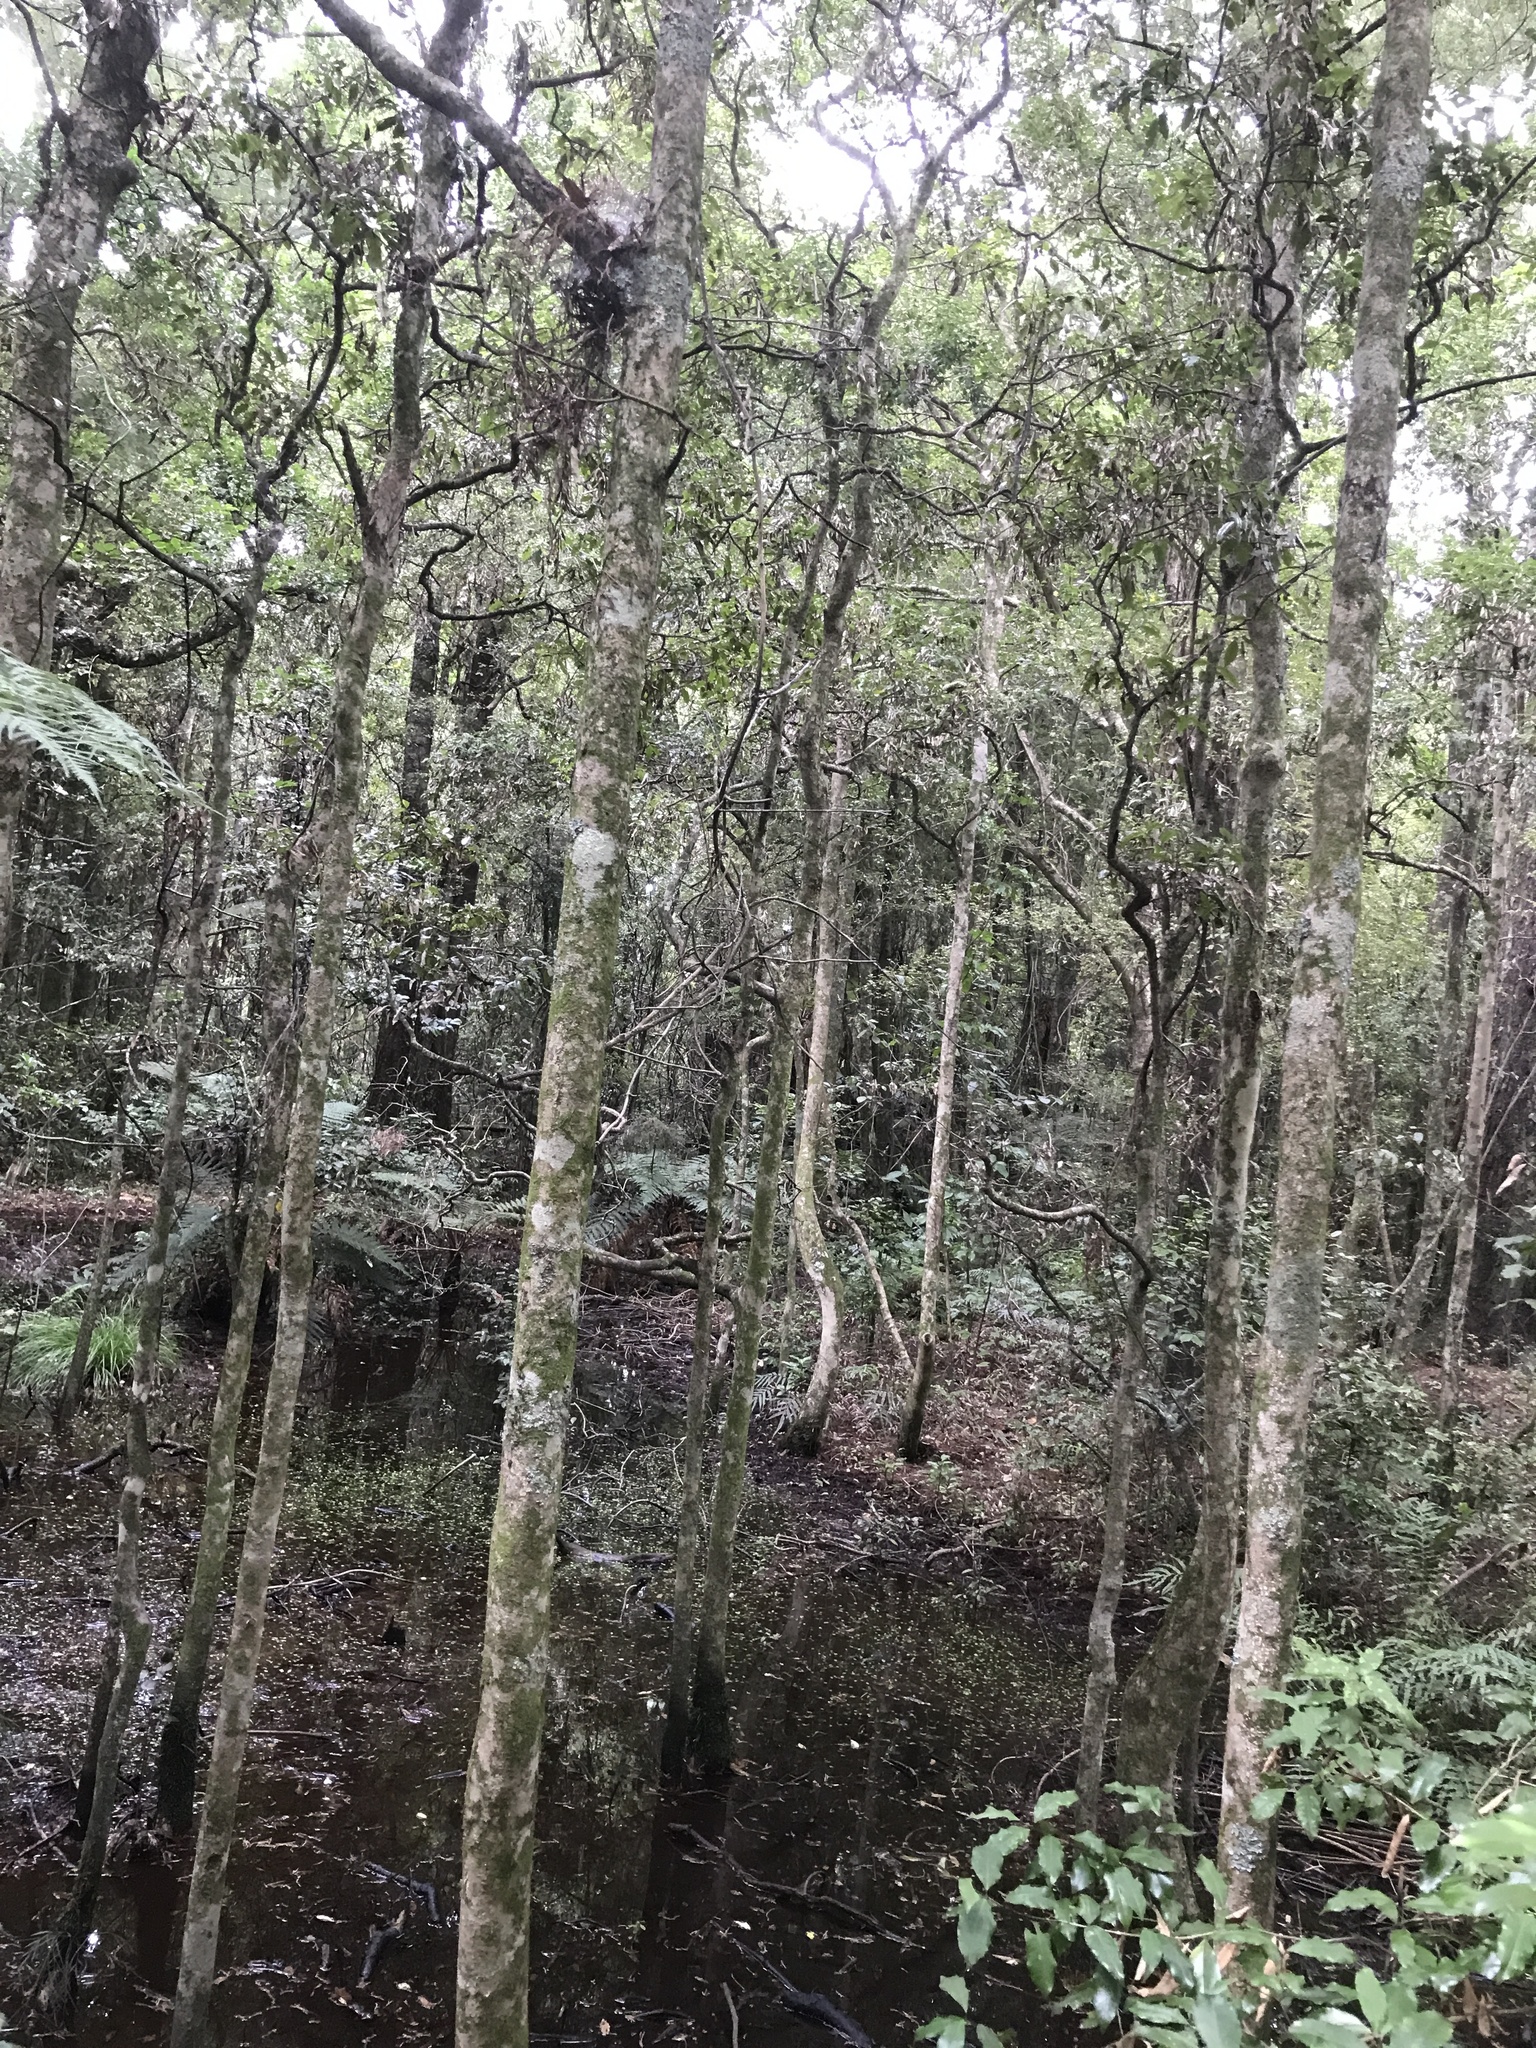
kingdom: Plantae
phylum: Tracheophyta
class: Magnoliopsida
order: Myrtales
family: Myrtaceae
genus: Syzygium
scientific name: Syzygium maire
